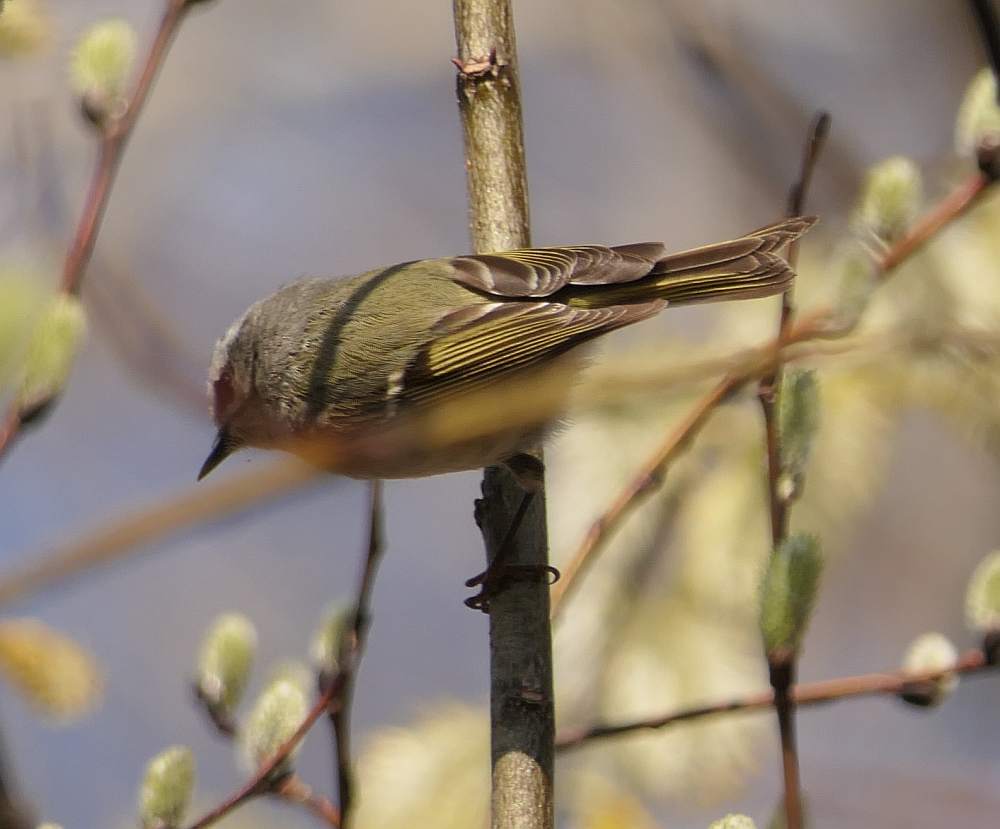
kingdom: Animalia
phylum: Chordata
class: Aves
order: Passeriformes
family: Regulidae
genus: Regulus
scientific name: Regulus satrapa
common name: Golden-crowned kinglet
